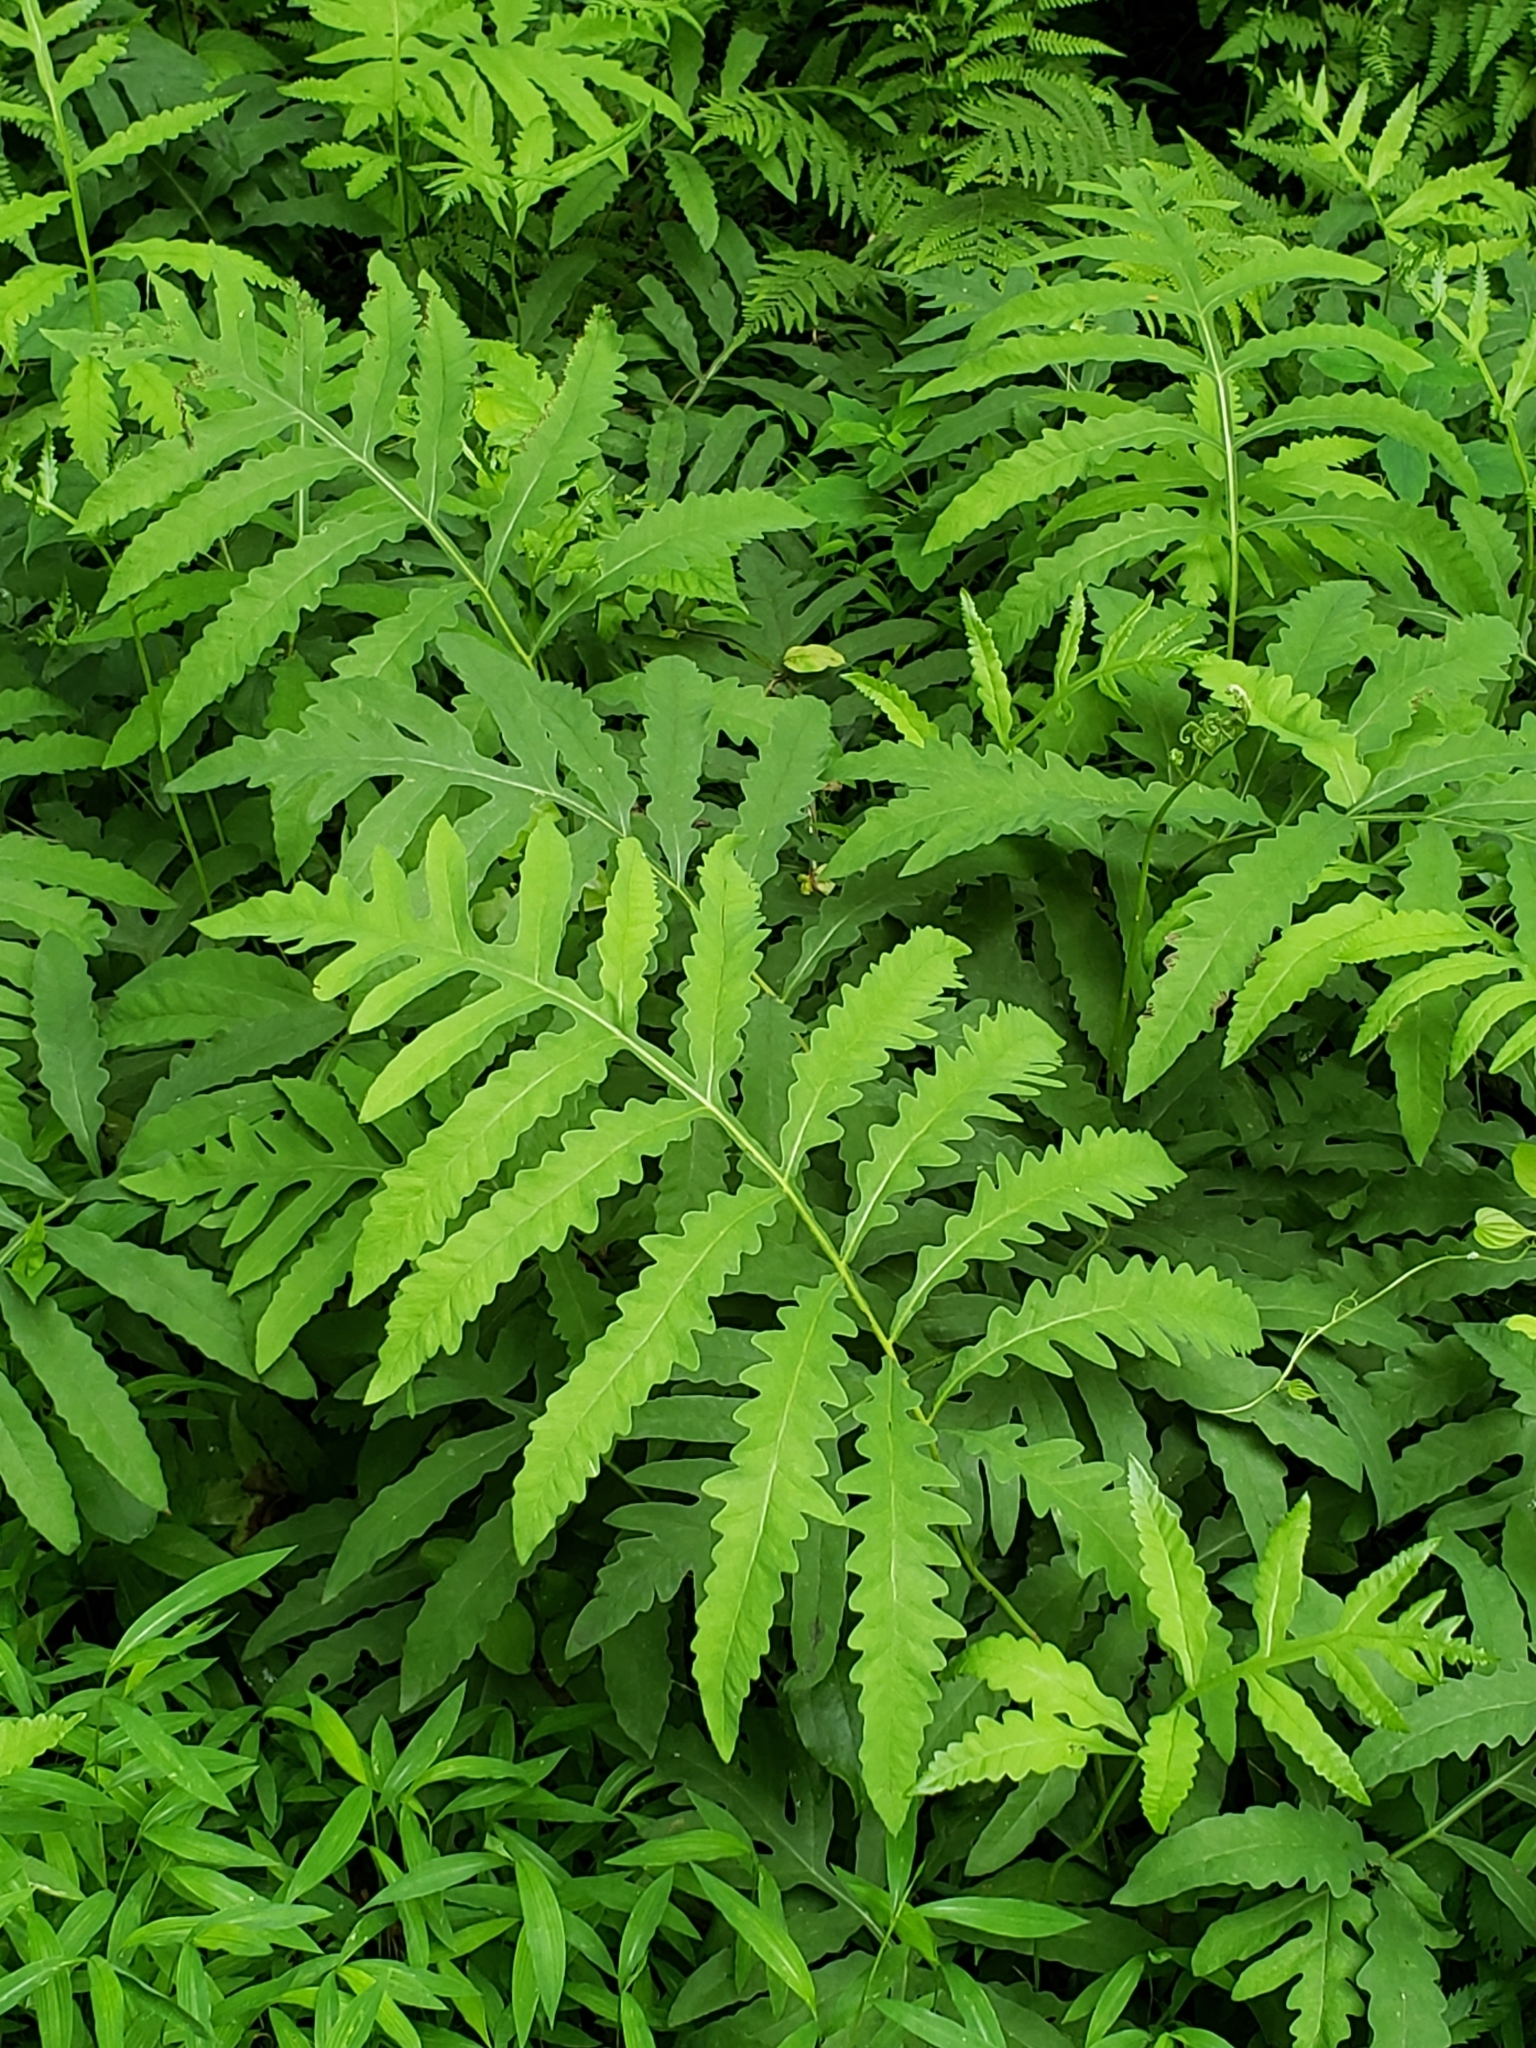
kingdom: Plantae
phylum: Tracheophyta
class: Polypodiopsida
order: Polypodiales
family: Onocleaceae
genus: Onoclea
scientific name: Onoclea sensibilis
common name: Sensitive fern
